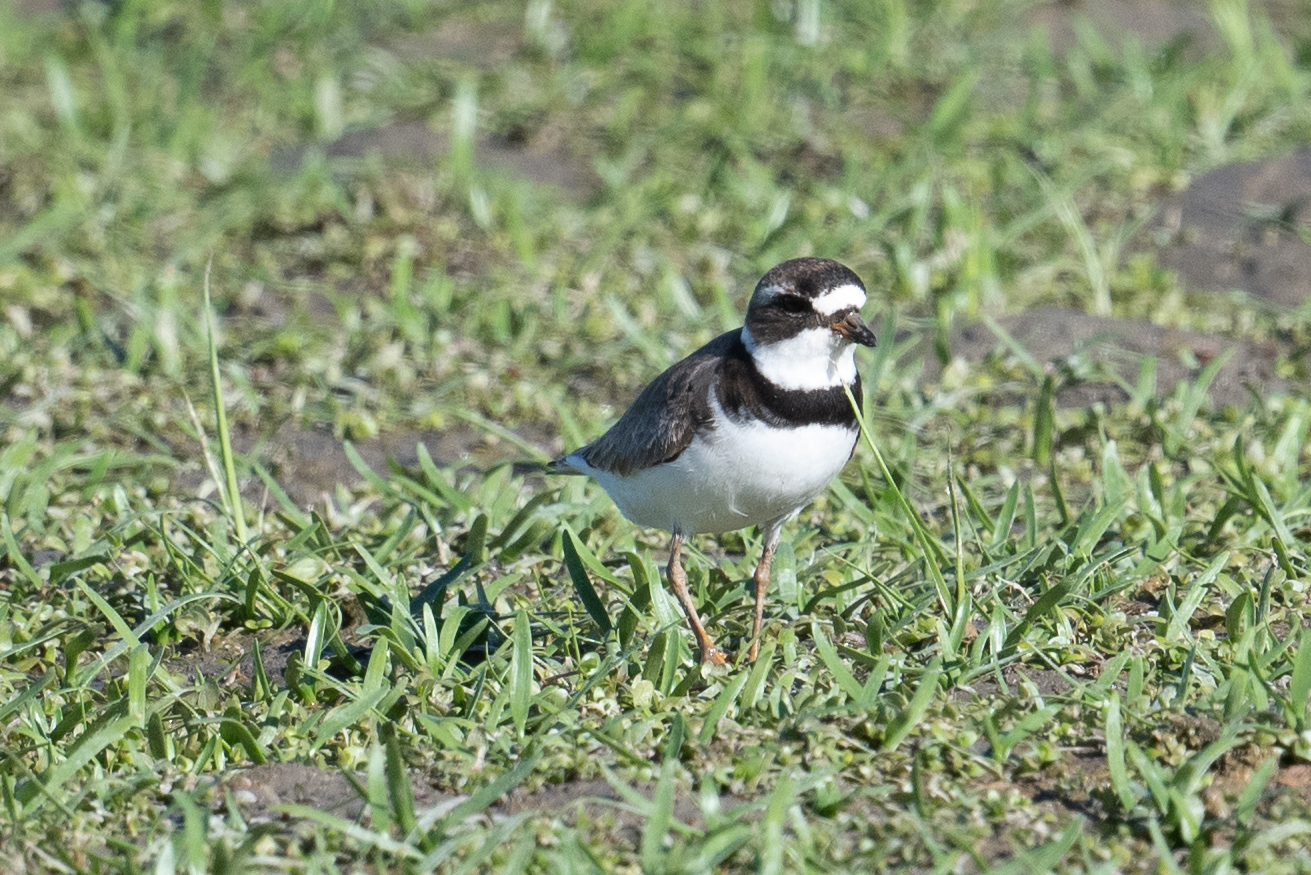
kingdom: Animalia
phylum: Chordata
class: Aves
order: Charadriiformes
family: Charadriidae
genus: Charadrius
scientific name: Charadrius semipalmatus
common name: Semipalmated plover
